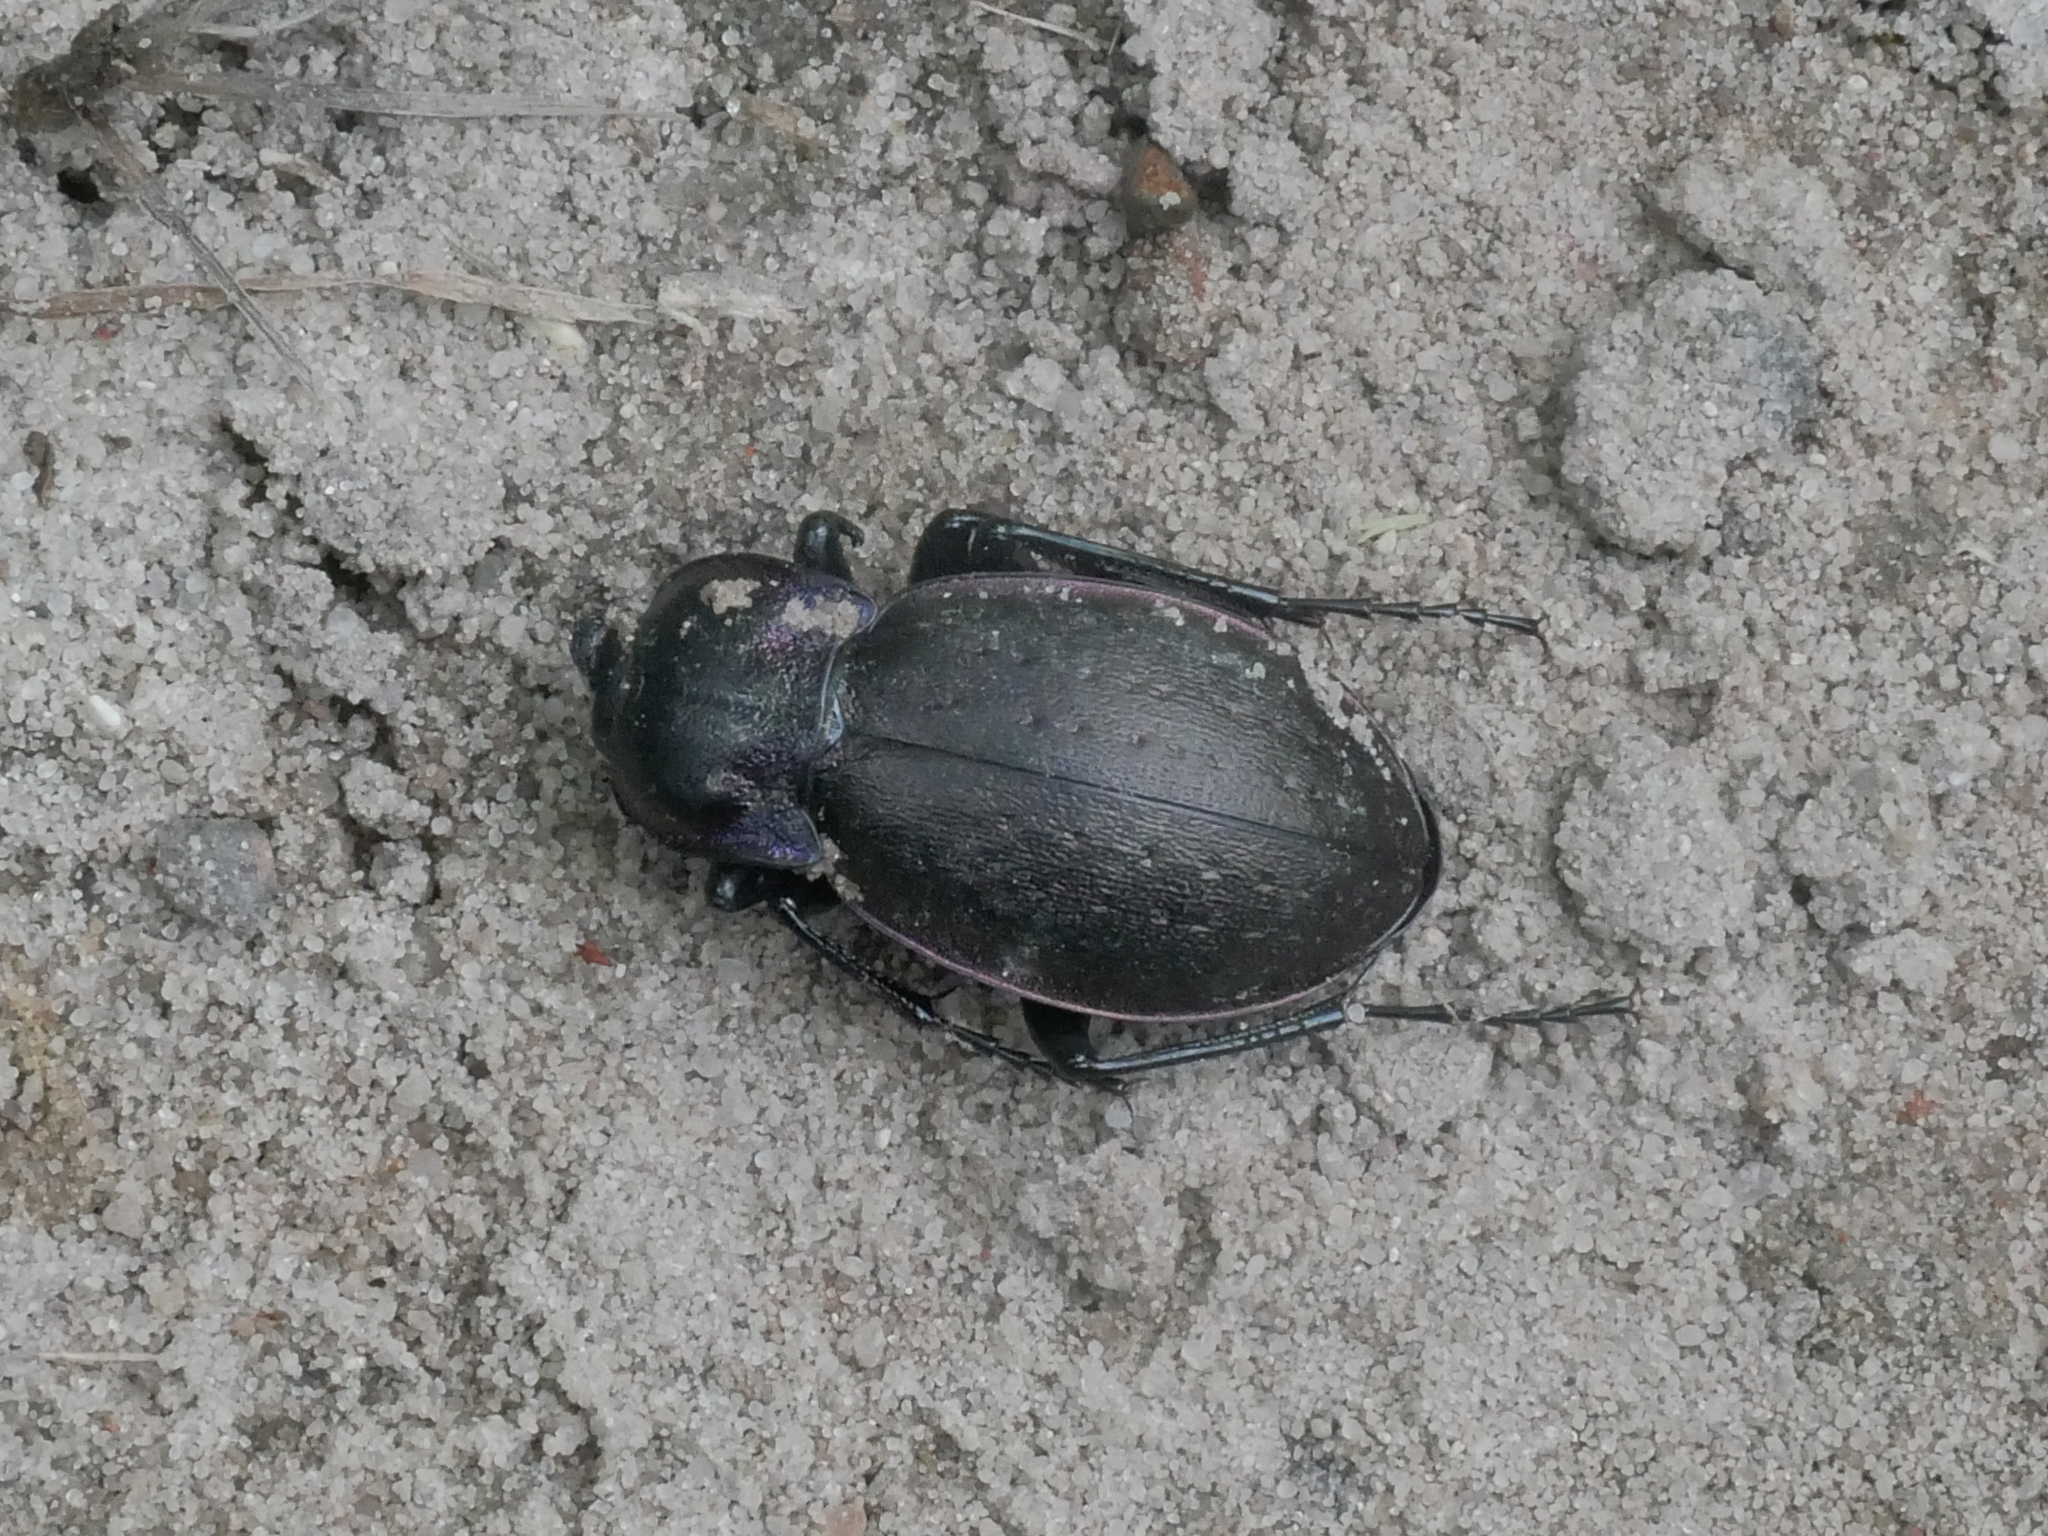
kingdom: Animalia
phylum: Arthropoda
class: Insecta
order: Coleoptera
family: Carabidae
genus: Carabus
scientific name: Carabus nemoralis
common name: European ground beetle
